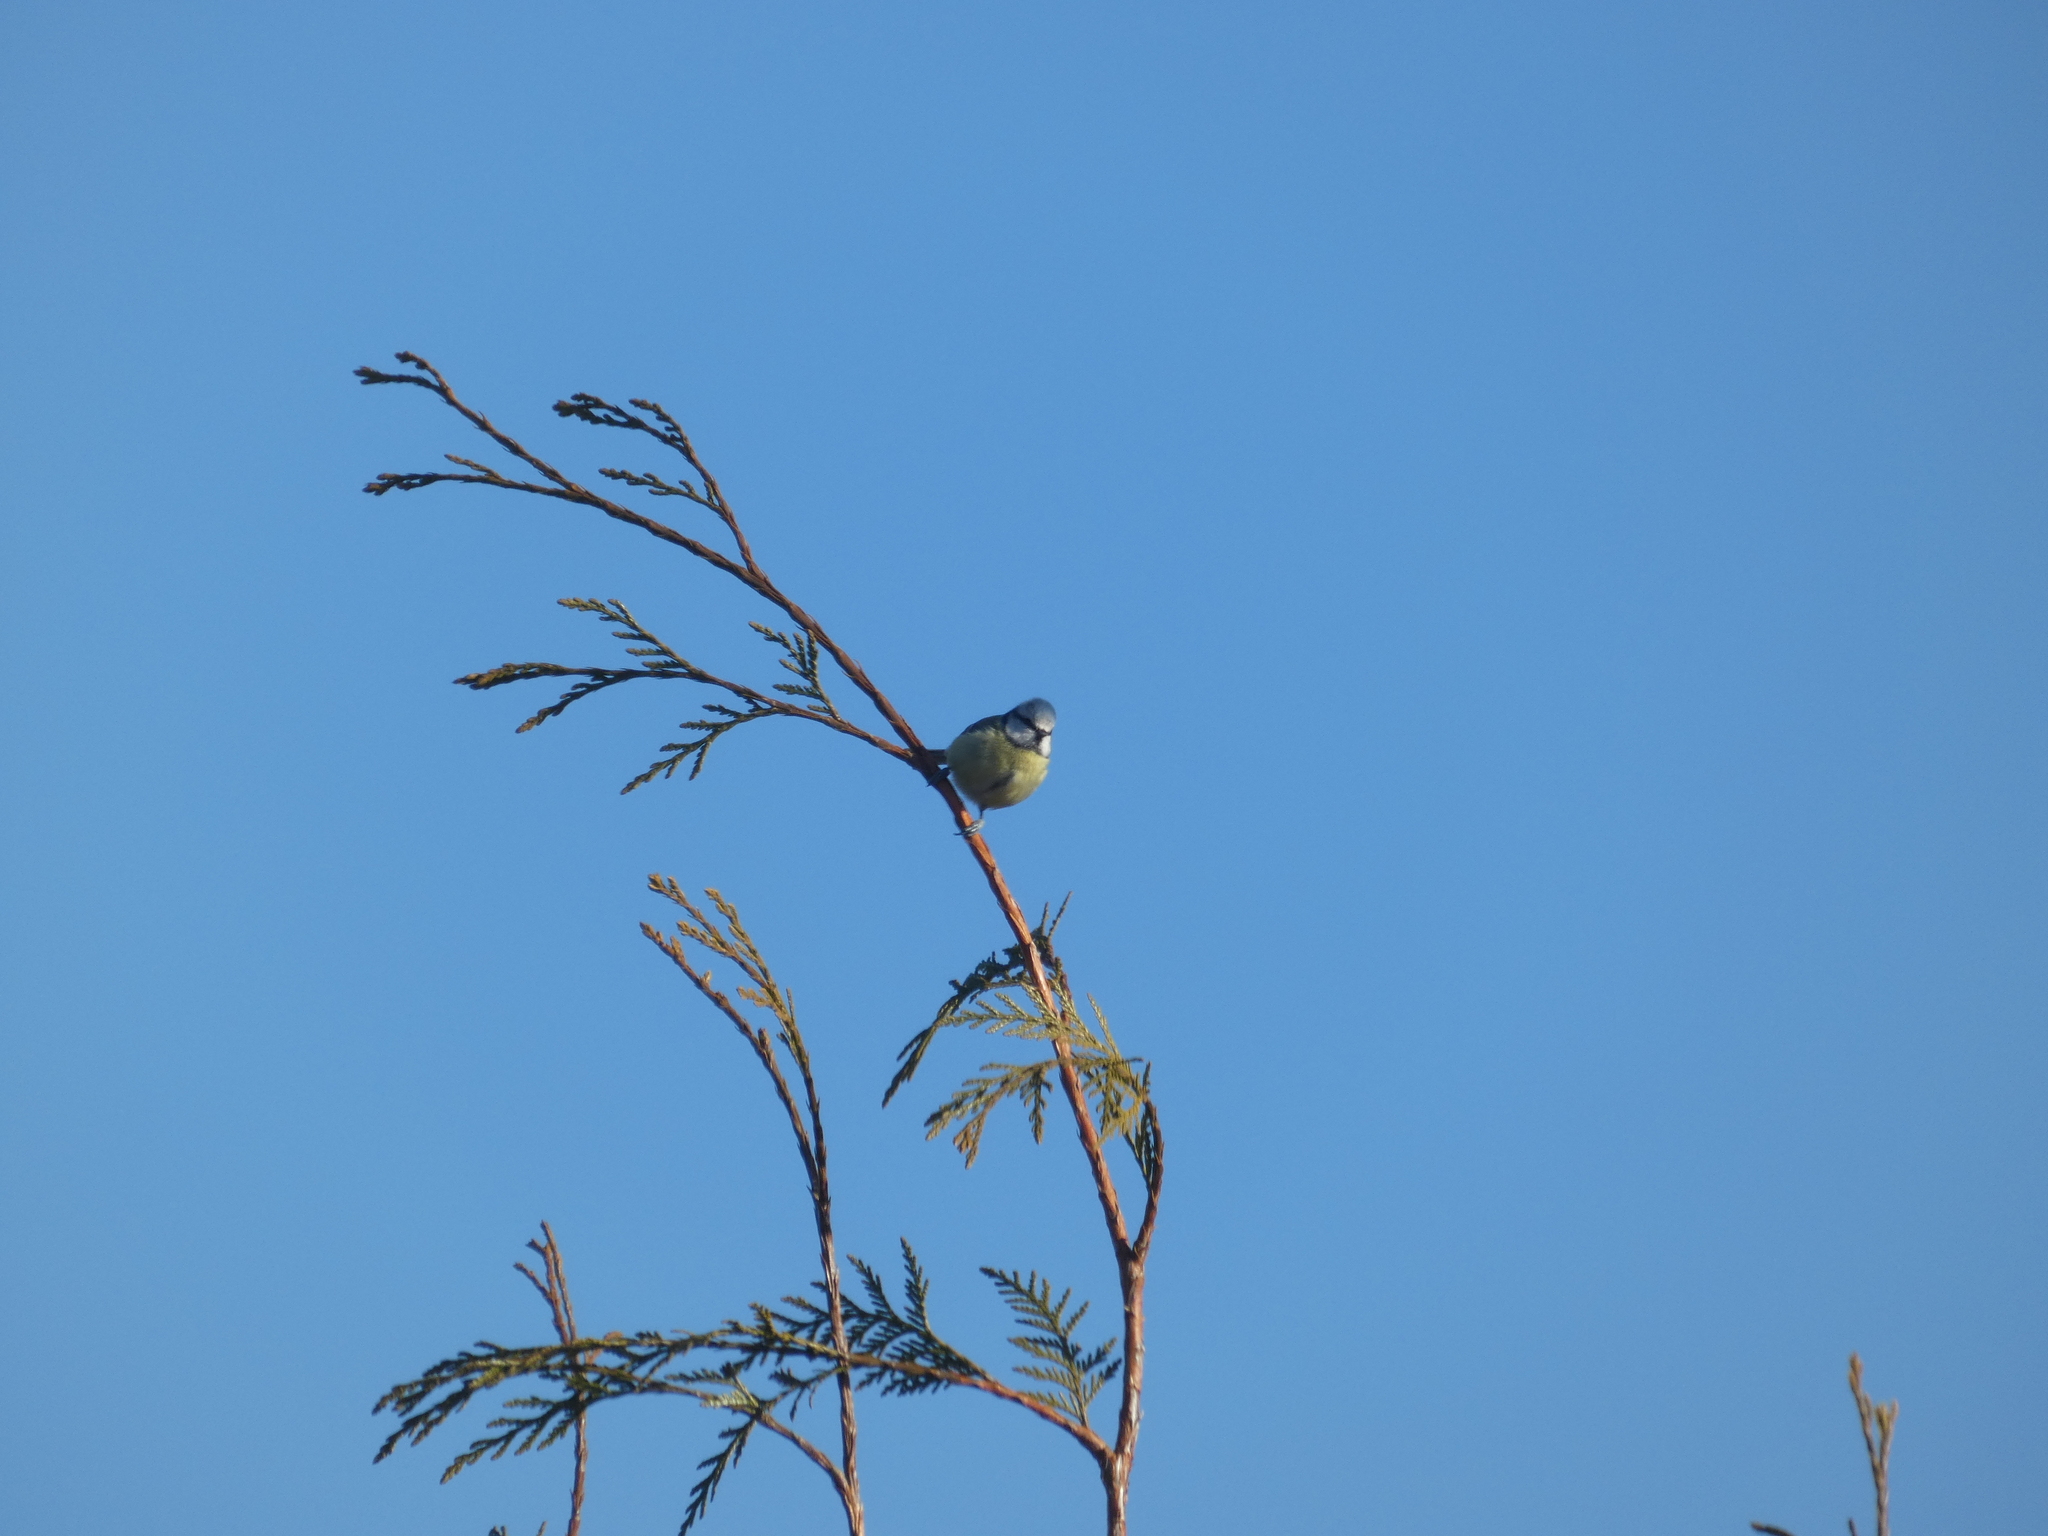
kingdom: Animalia
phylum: Chordata
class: Aves
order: Passeriformes
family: Paridae
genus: Cyanistes
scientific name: Cyanistes caeruleus
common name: Eurasian blue tit
